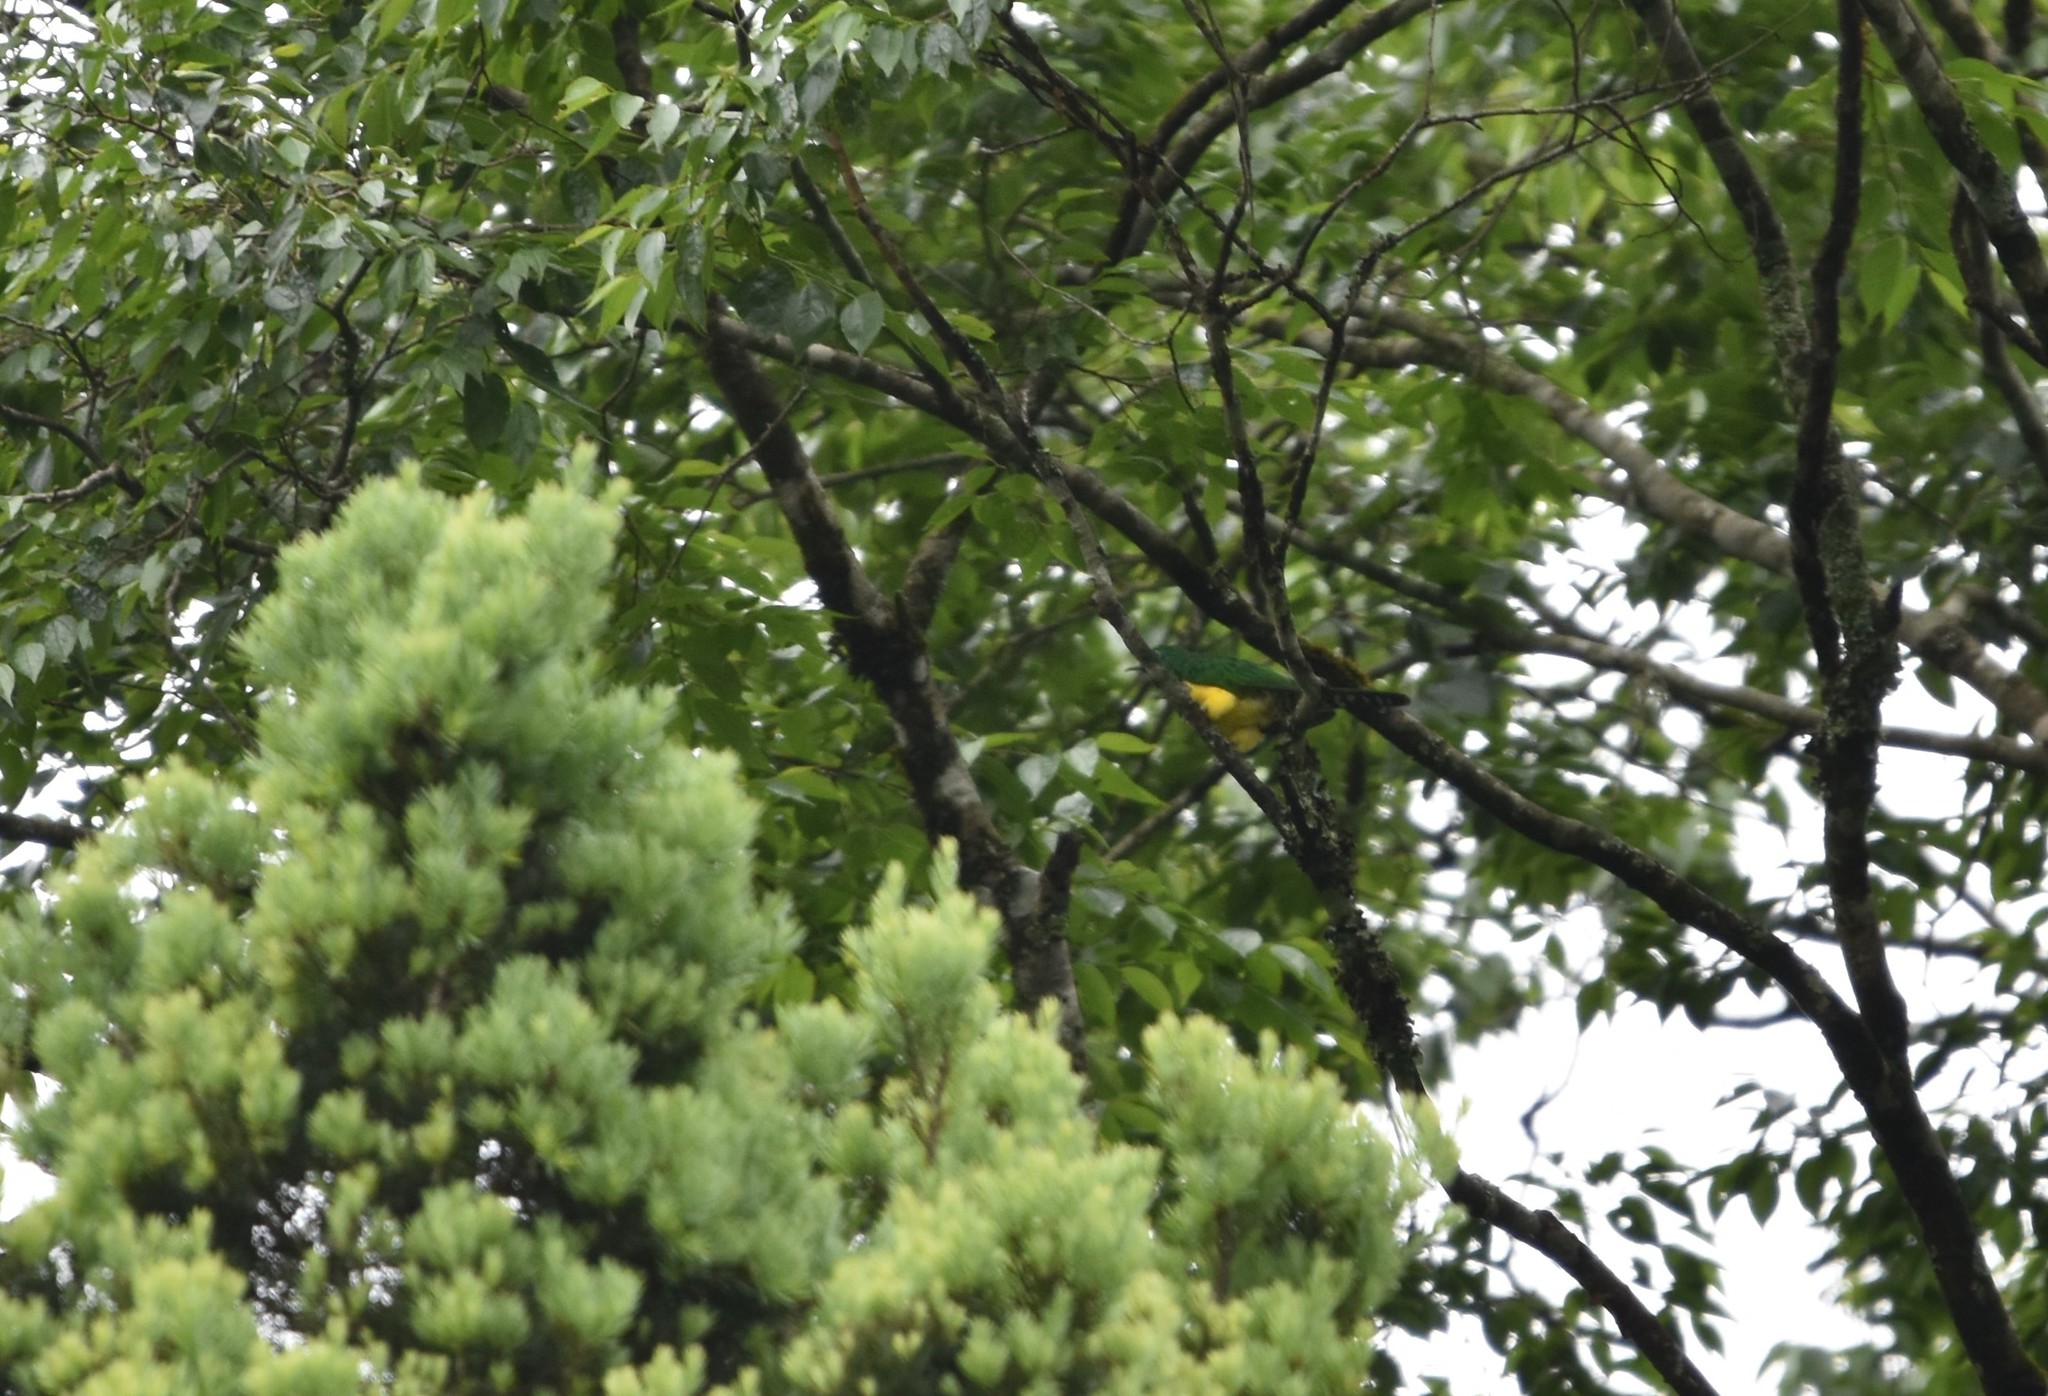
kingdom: Animalia
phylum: Chordata
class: Aves
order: Cuculiformes
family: Cuculidae
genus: Chrysococcyx
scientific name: Chrysococcyx cupreus
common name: African emerald cuckoo
